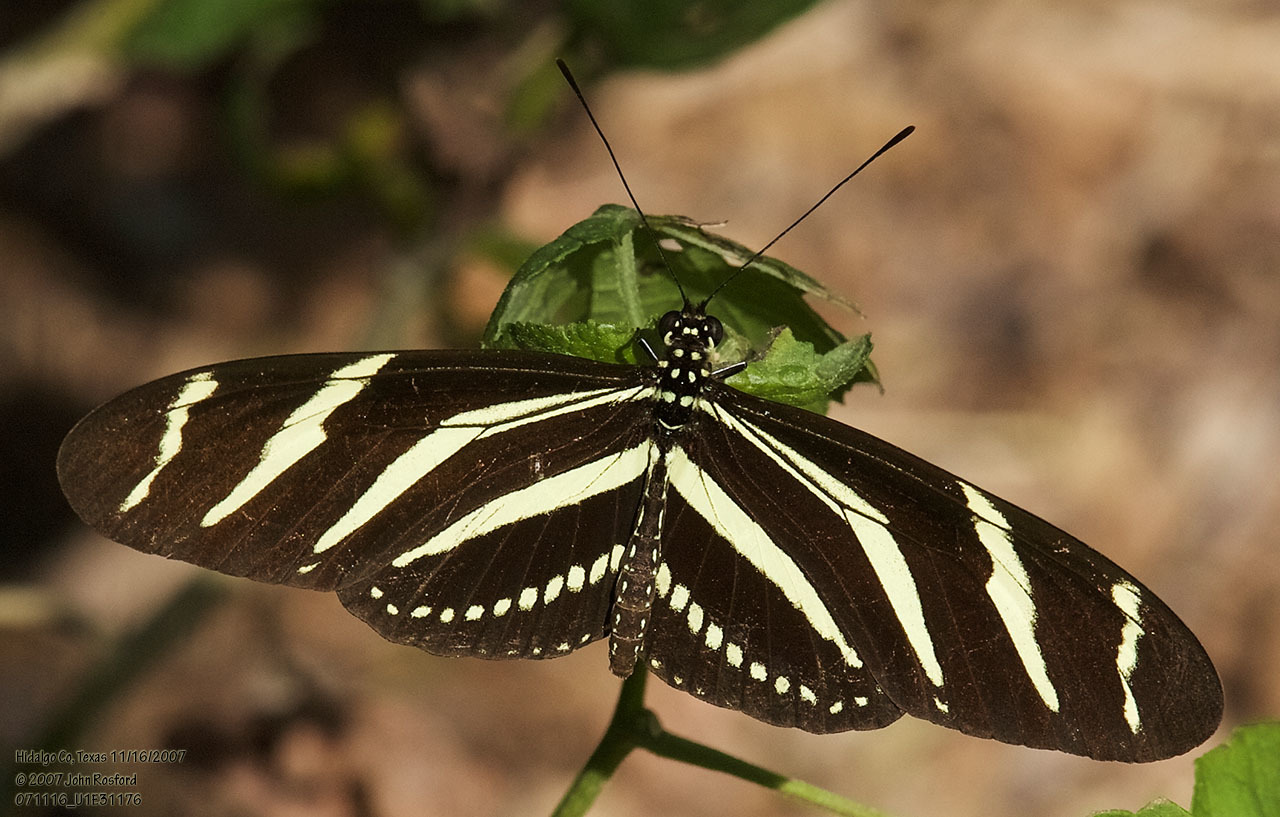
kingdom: Animalia
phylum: Arthropoda
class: Insecta
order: Lepidoptera
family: Nymphalidae
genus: Heliconius
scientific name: Heliconius charithonia
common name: Zebra long wing
